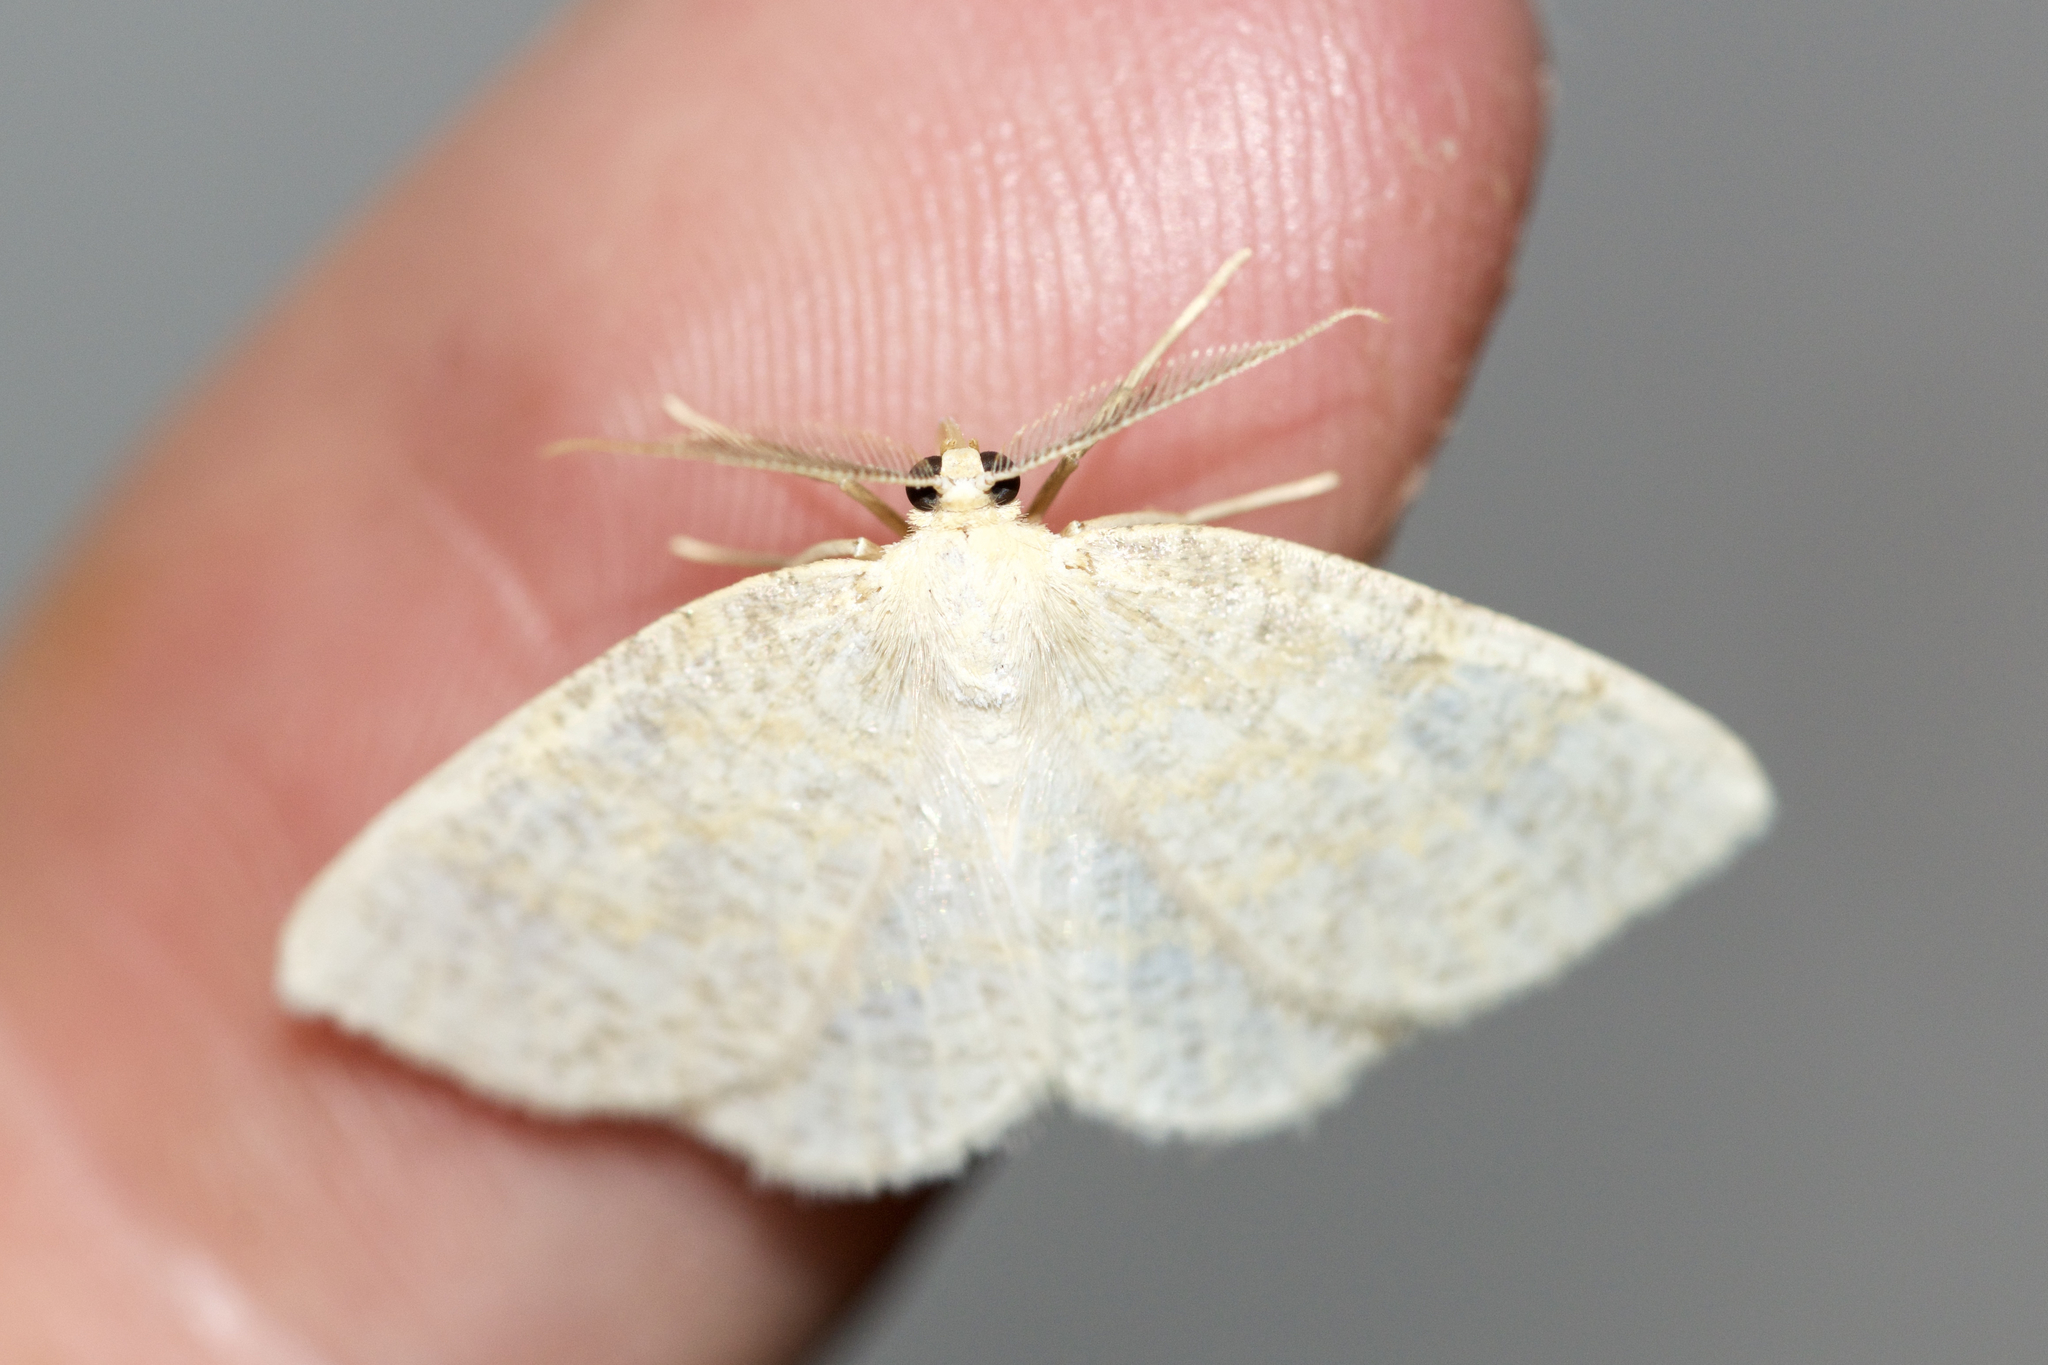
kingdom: Animalia
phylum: Arthropoda
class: Insecta
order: Lepidoptera
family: Geometridae
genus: Cabera
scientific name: Cabera erythemaria
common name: Yellow-dusted cream moth
